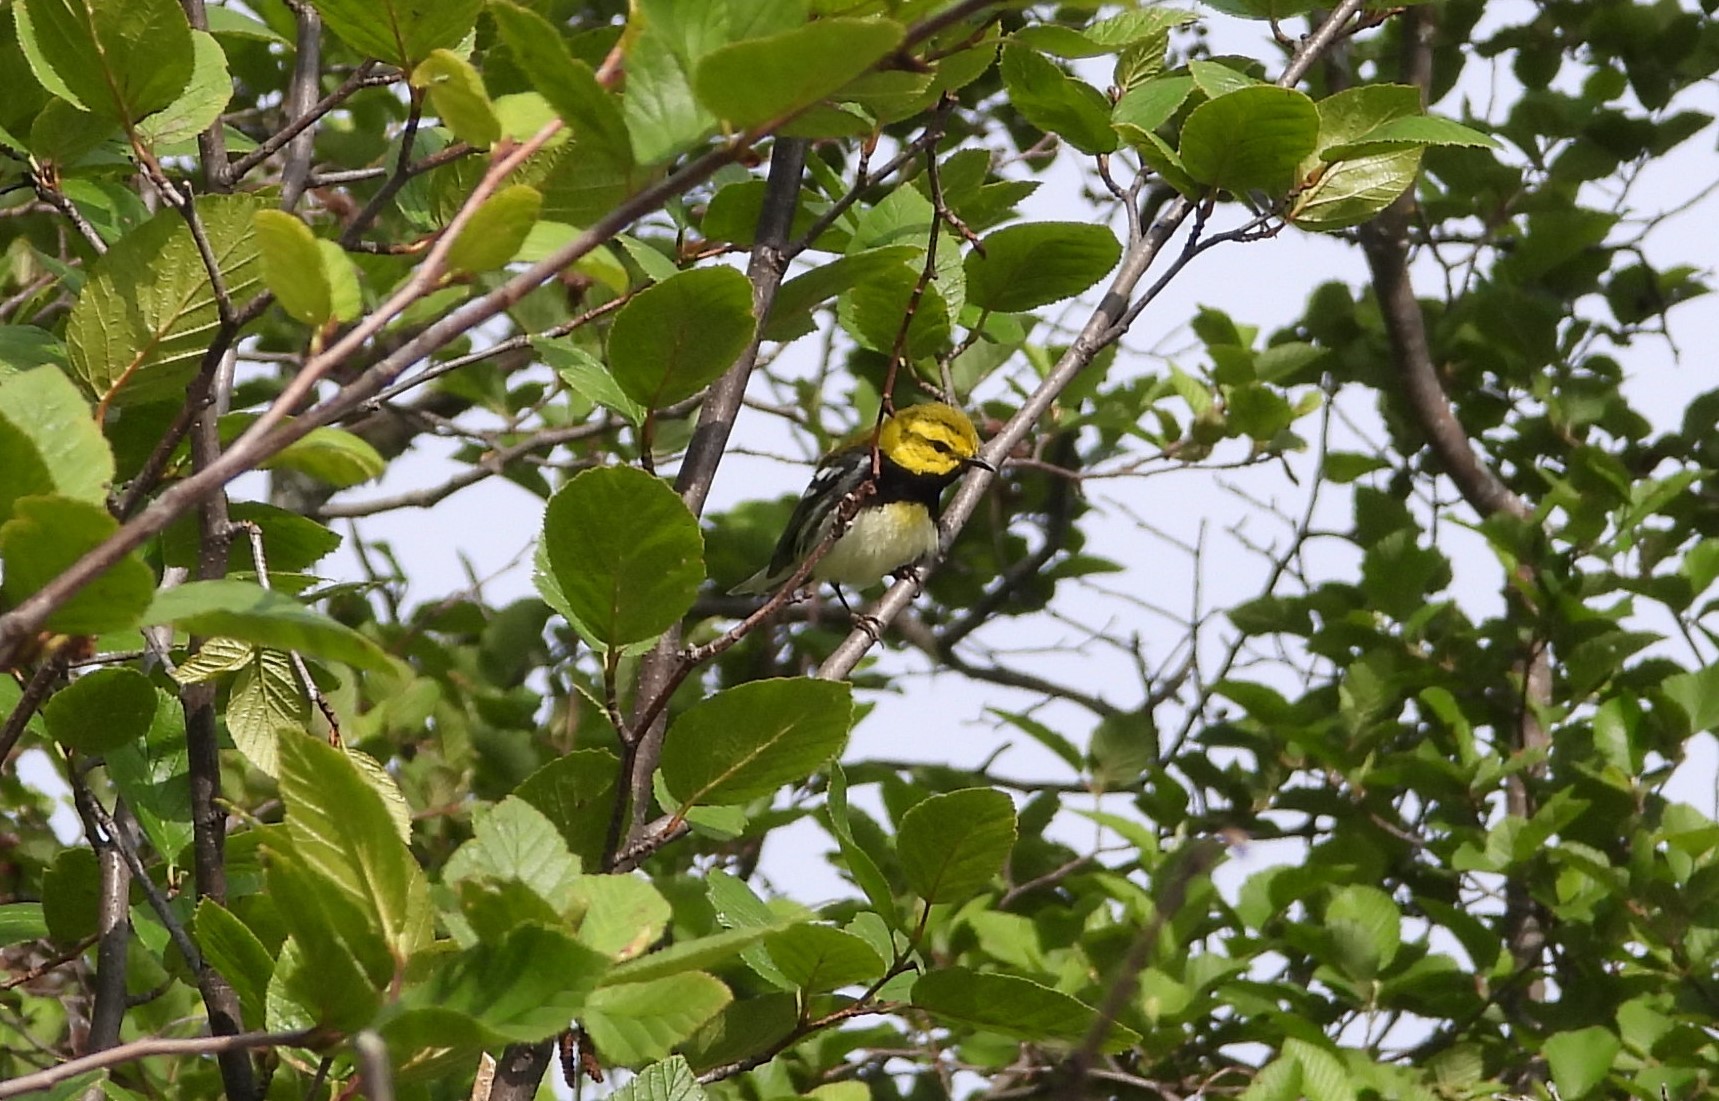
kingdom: Animalia
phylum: Chordata
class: Aves
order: Passeriformes
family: Parulidae
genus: Setophaga
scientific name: Setophaga virens
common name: Black-throated green warbler
